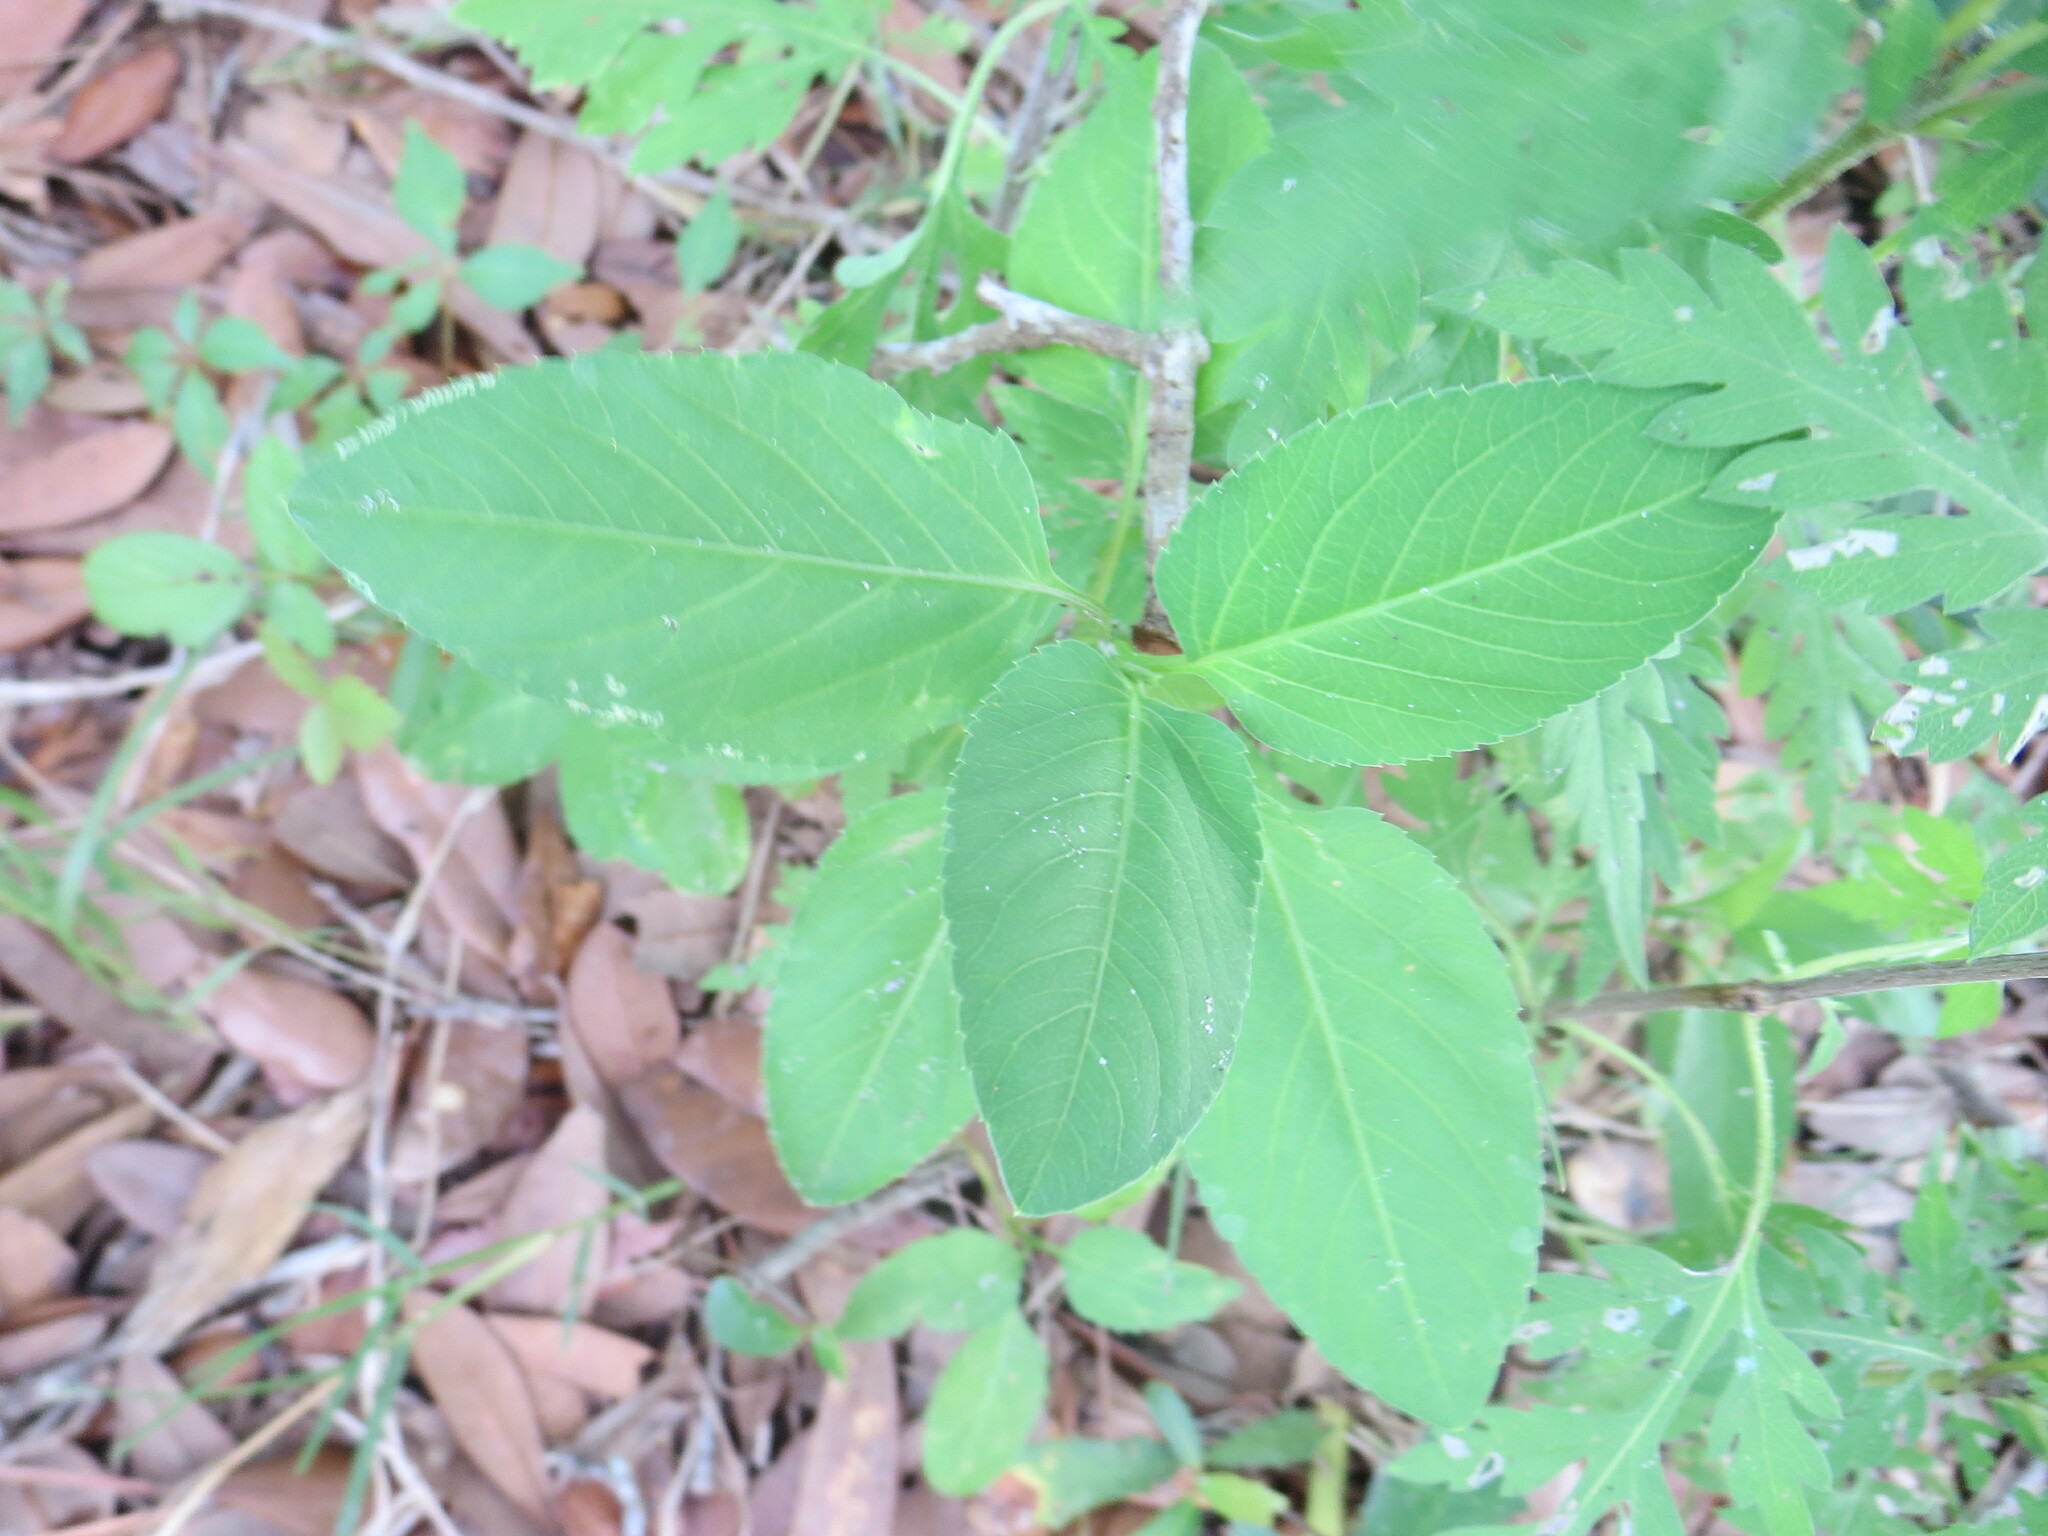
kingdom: Plantae
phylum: Tracheophyta
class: Magnoliopsida
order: Asterales
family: Asteraceae
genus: Bidens
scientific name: Bidens alba
